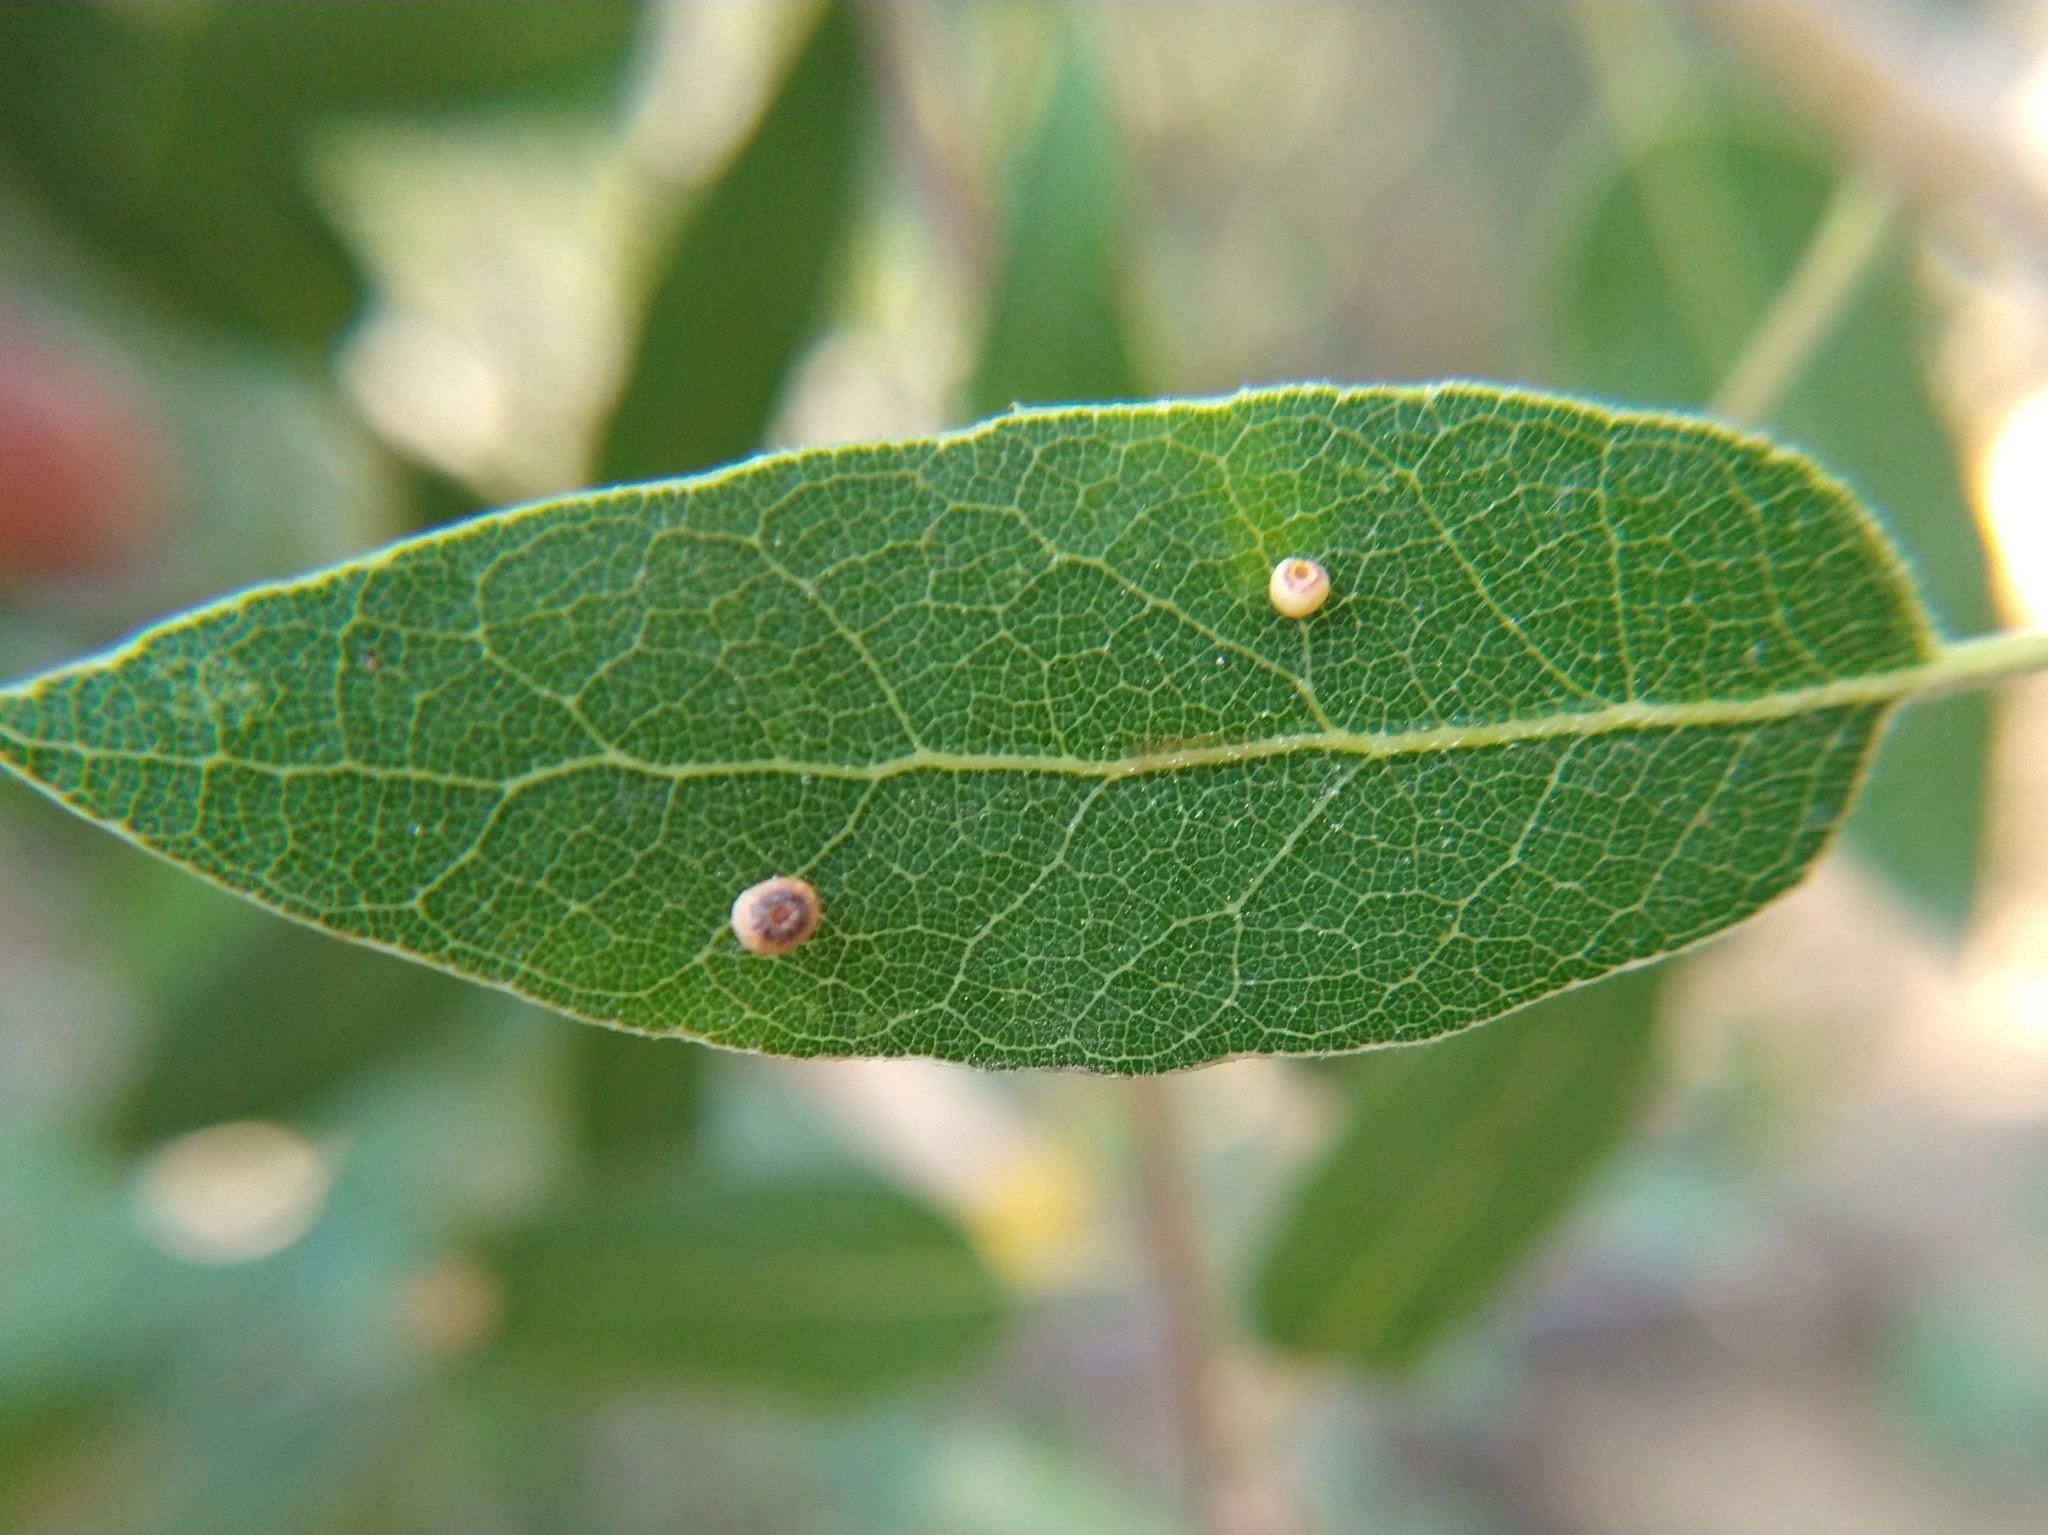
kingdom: Animalia
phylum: Arthropoda
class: Insecta
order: Hymenoptera
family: Cynipidae
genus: Dryocosmus
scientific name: Dryocosmus
